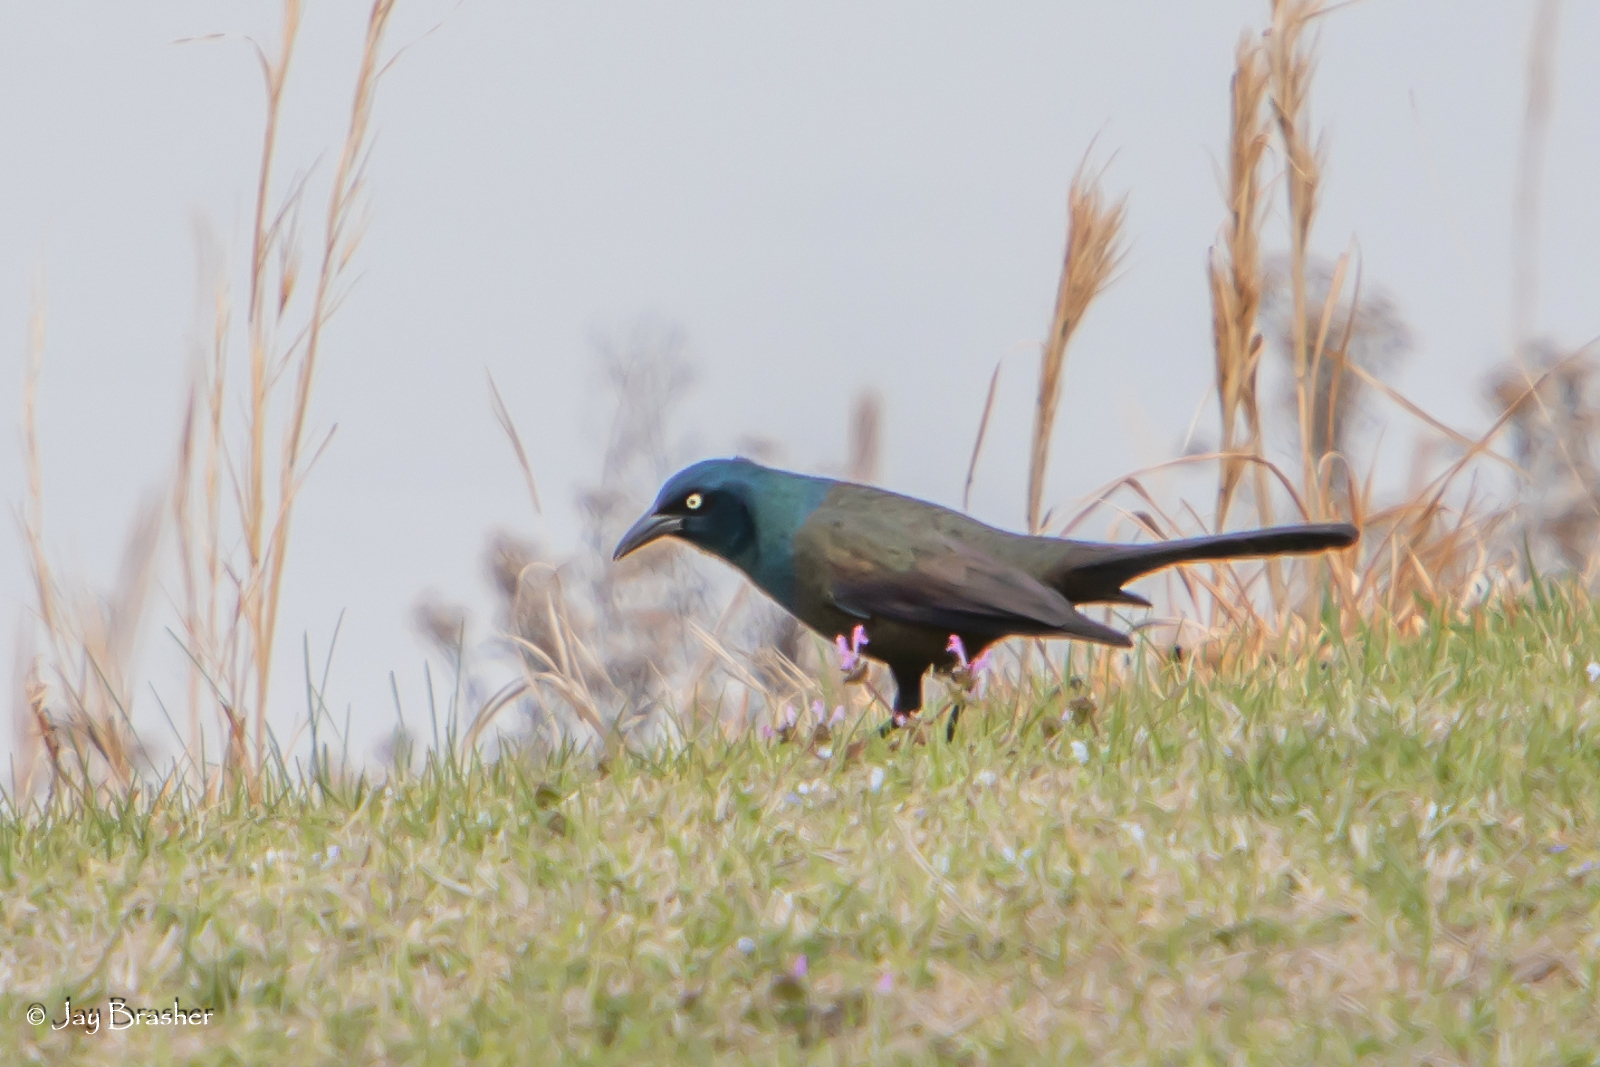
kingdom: Animalia
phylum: Chordata
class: Aves
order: Passeriformes
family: Icteridae
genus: Quiscalus
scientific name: Quiscalus quiscula
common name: Common grackle
